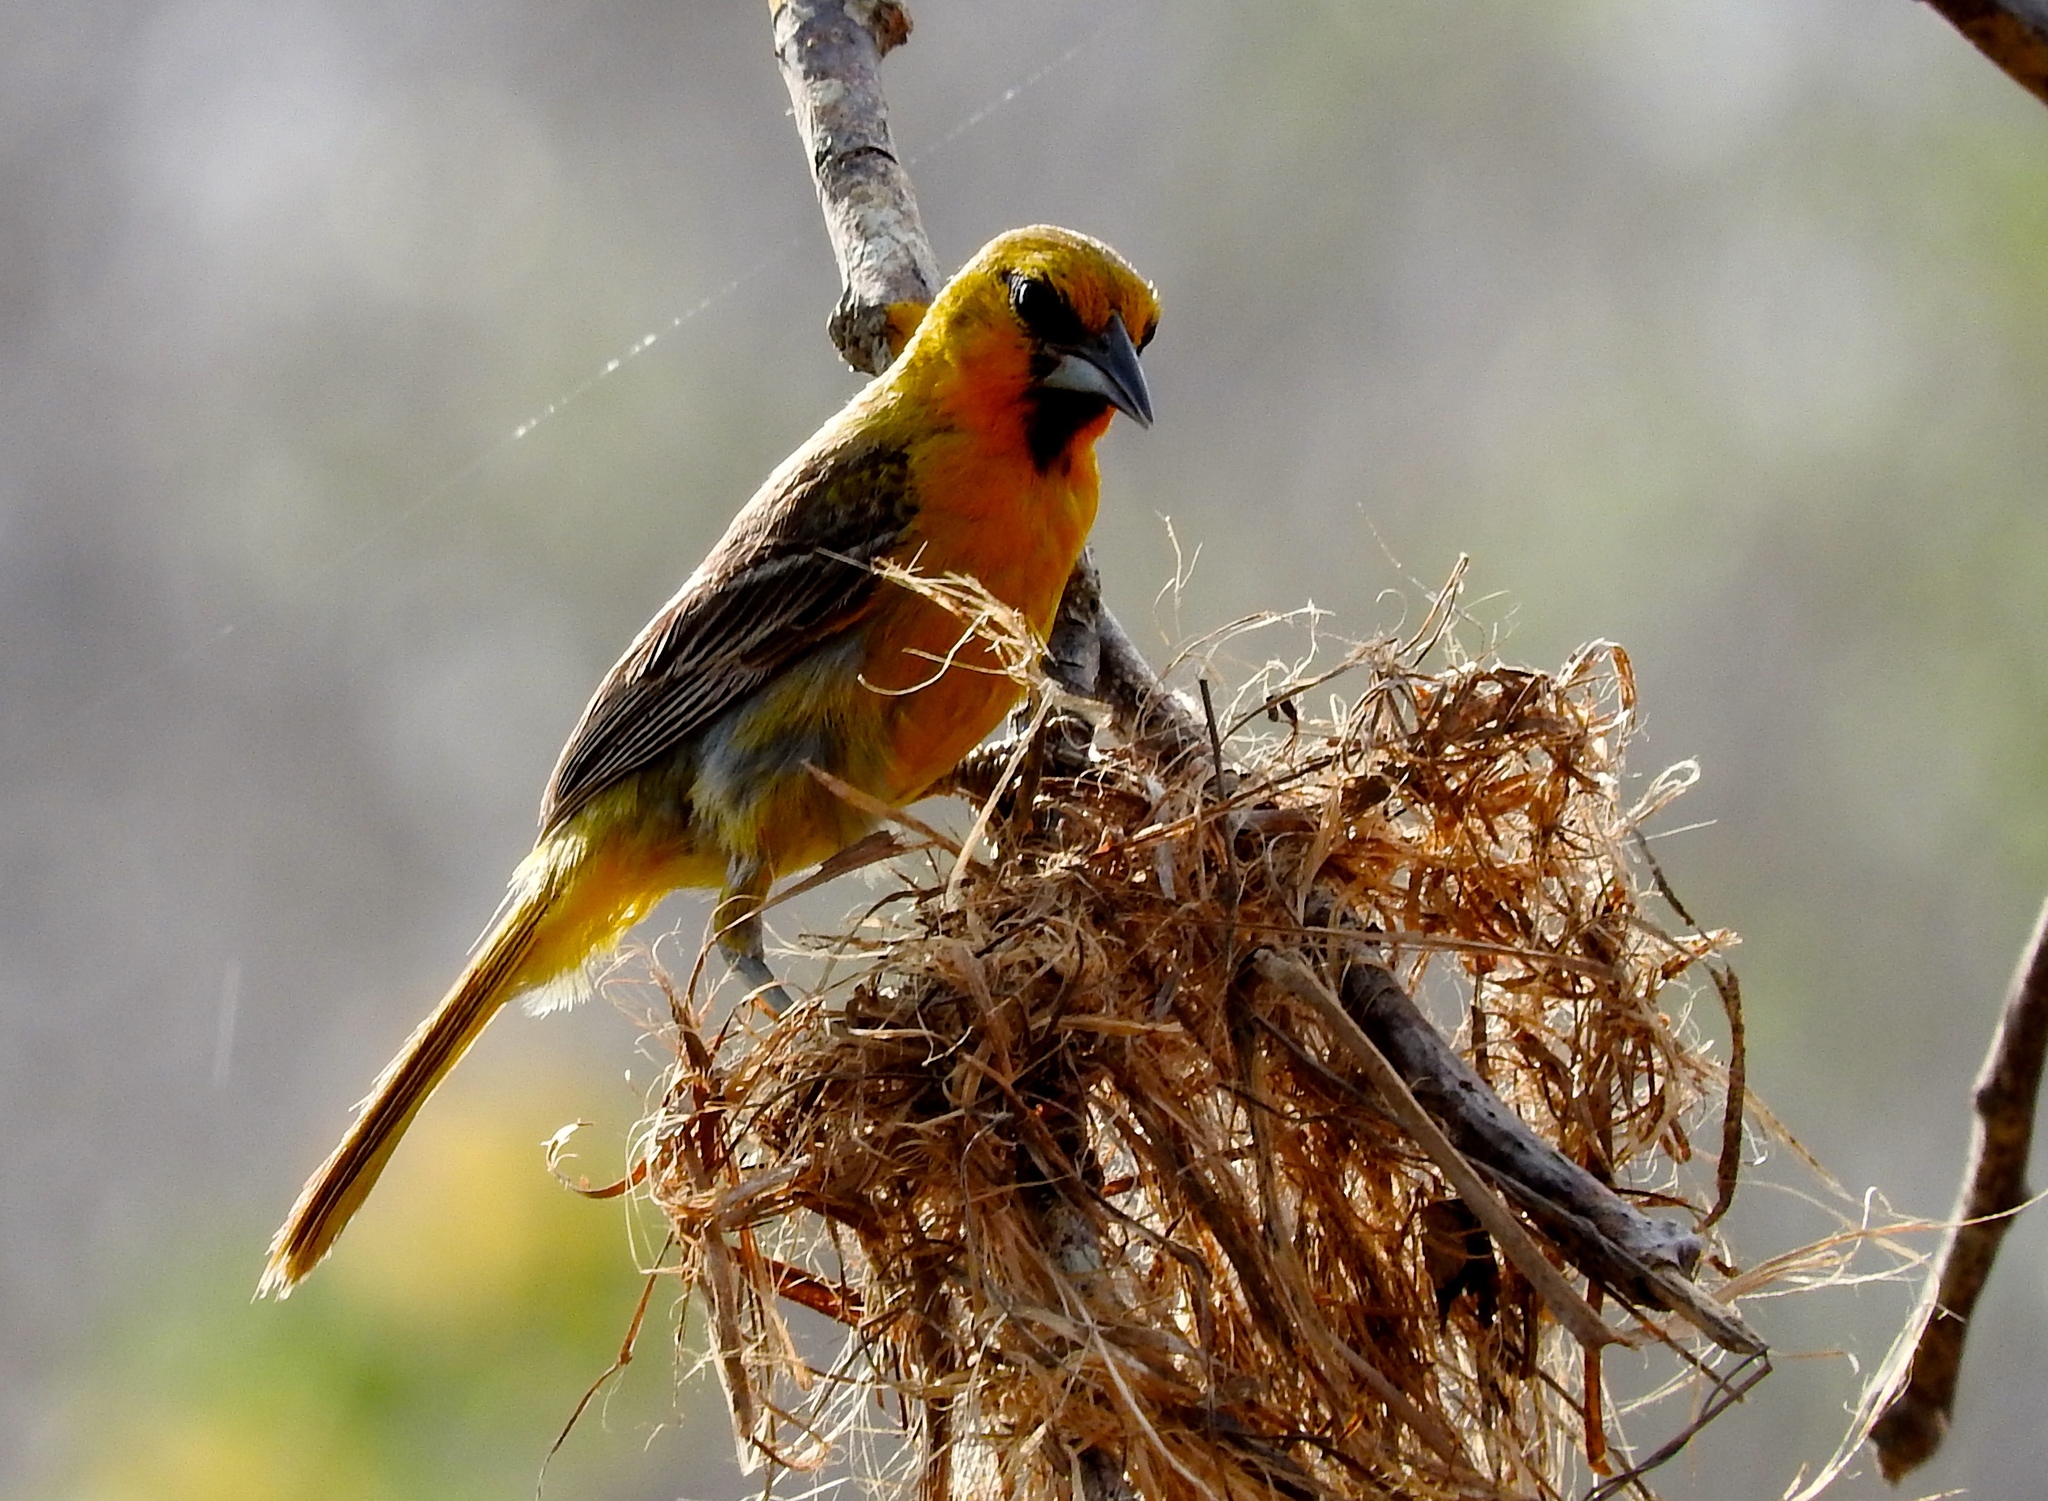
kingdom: Animalia
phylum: Chordata
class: Aves
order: Passeriformes
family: Icteridae
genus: Icterus
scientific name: Icterus pustulatus
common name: Streak-backed oriole
